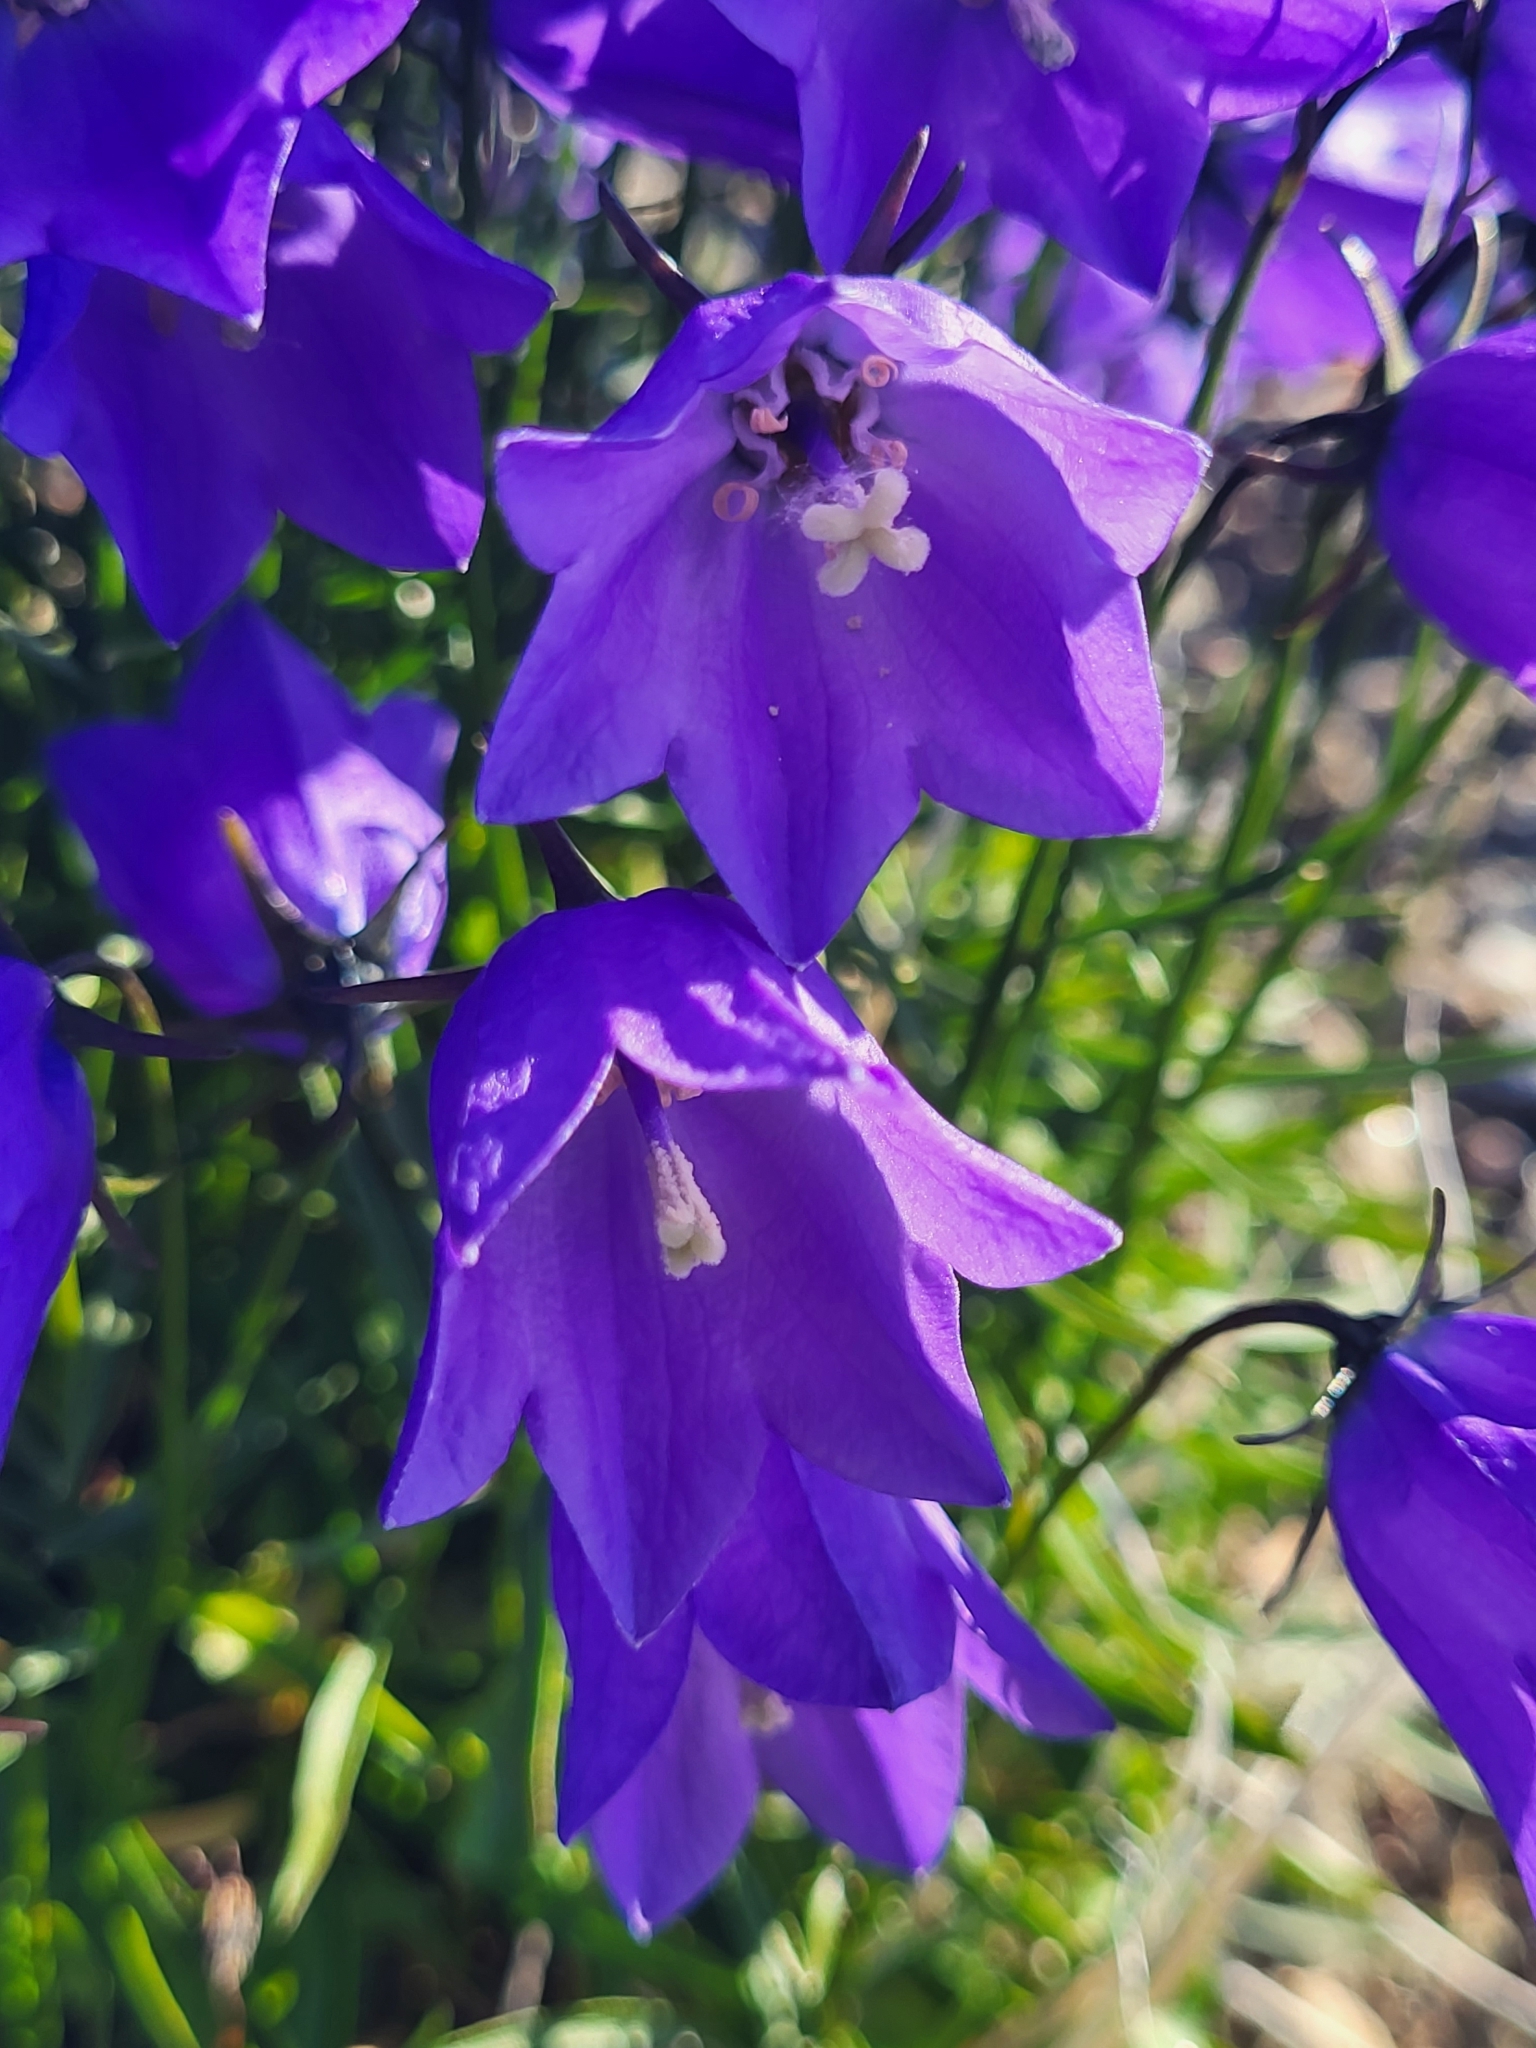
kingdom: Plantae
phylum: Tracheophyta
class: Magnoliopsida
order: Asterales
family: Campanulaceae
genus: Campanula
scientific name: Campanula giesekiana
